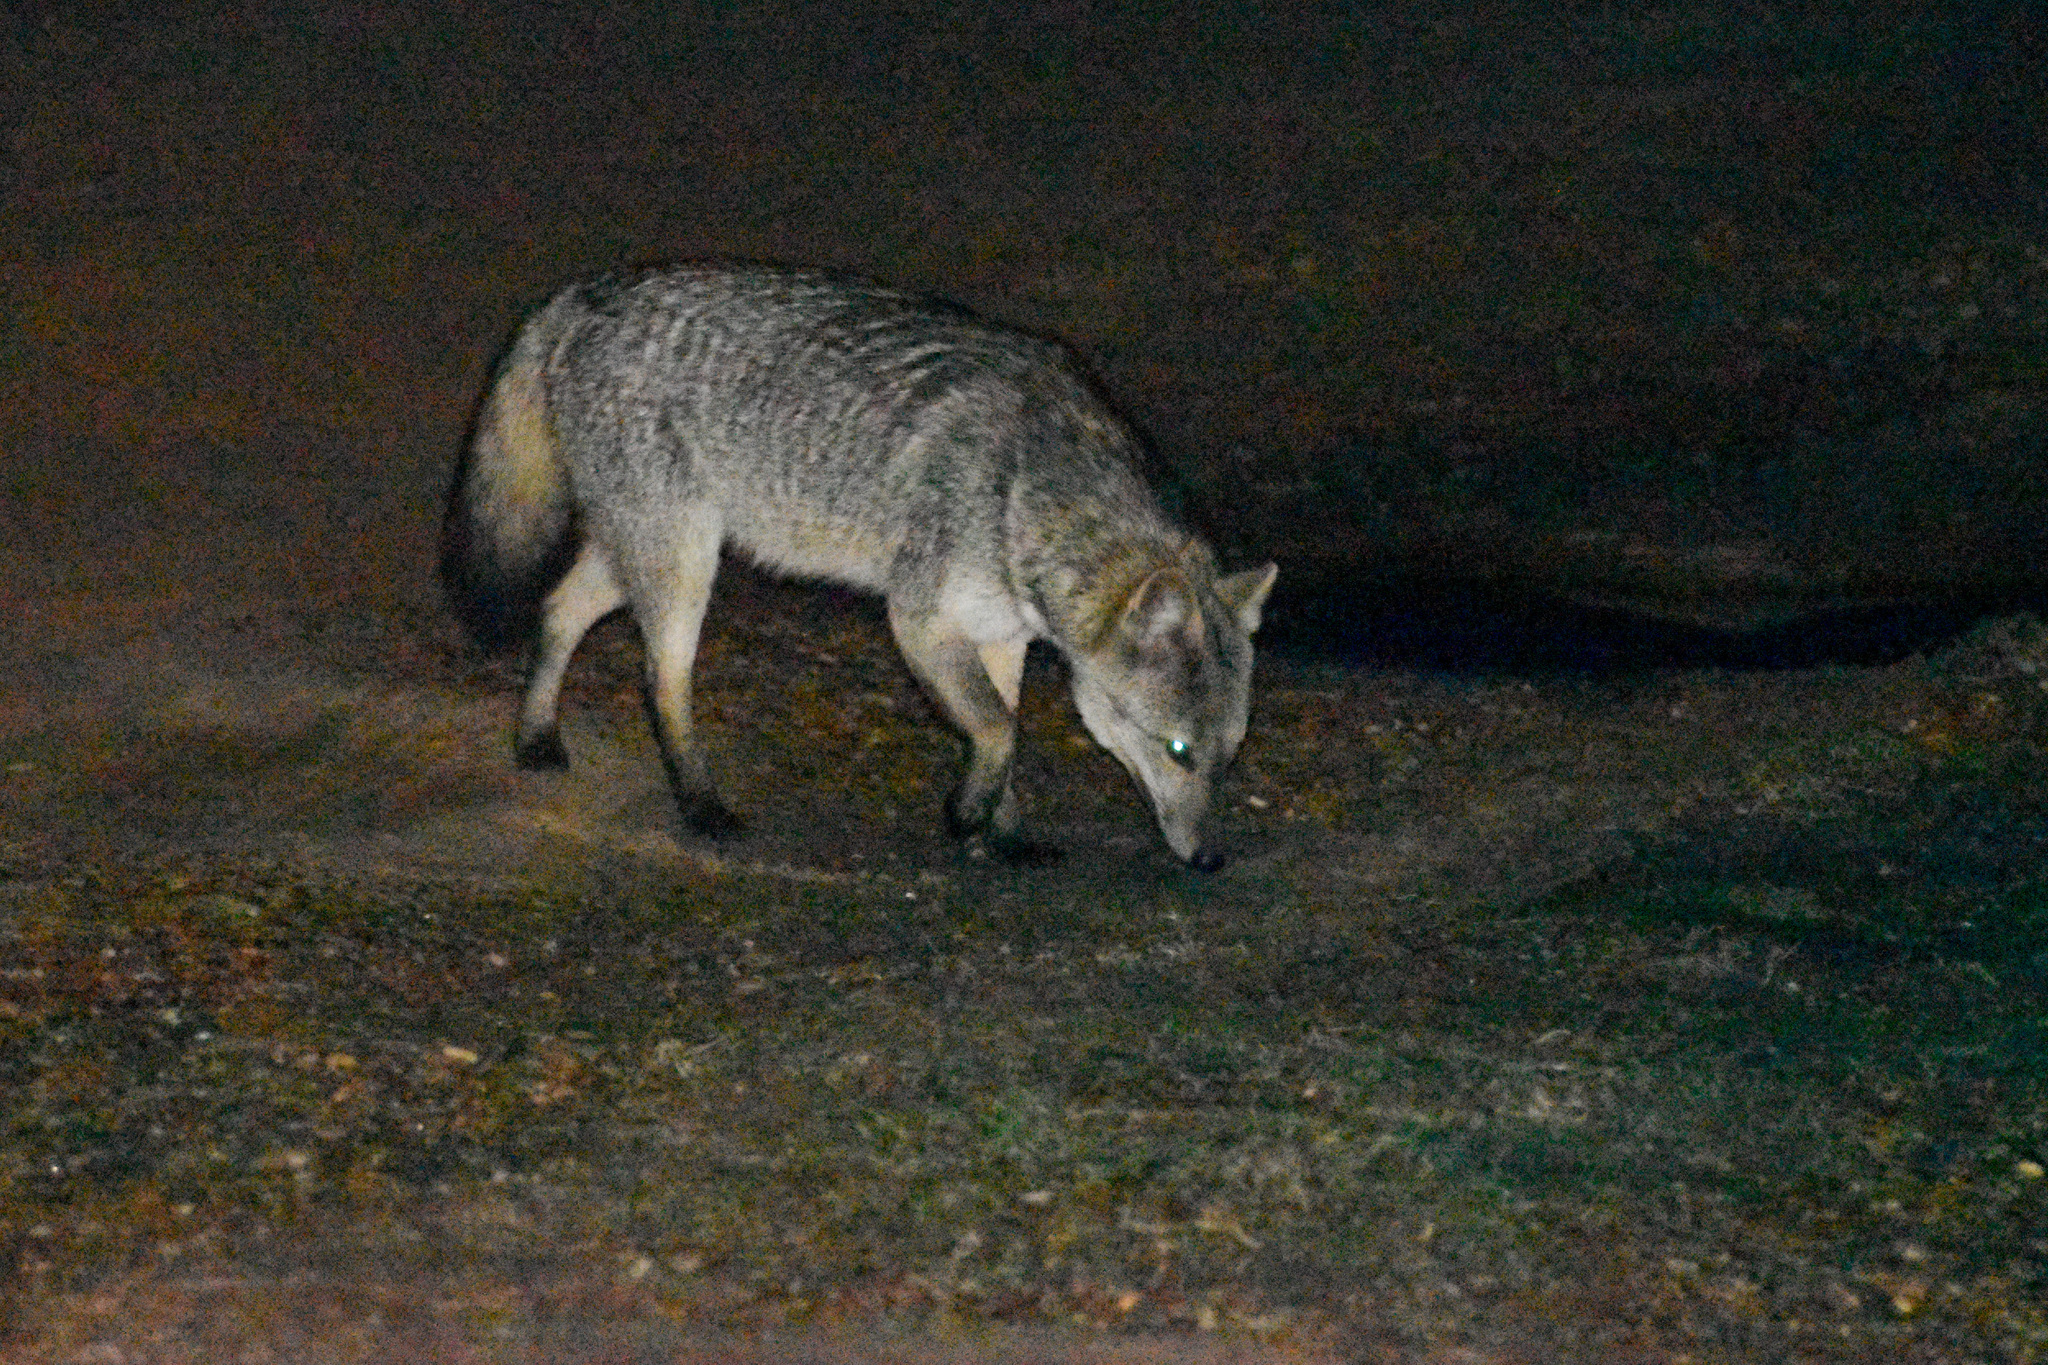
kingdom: Animalia
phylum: Chordata
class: Mammalia
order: Carnivora
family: Canidae
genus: Cerdocyon
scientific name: Cerdocyon thous
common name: Crab-eating fox
